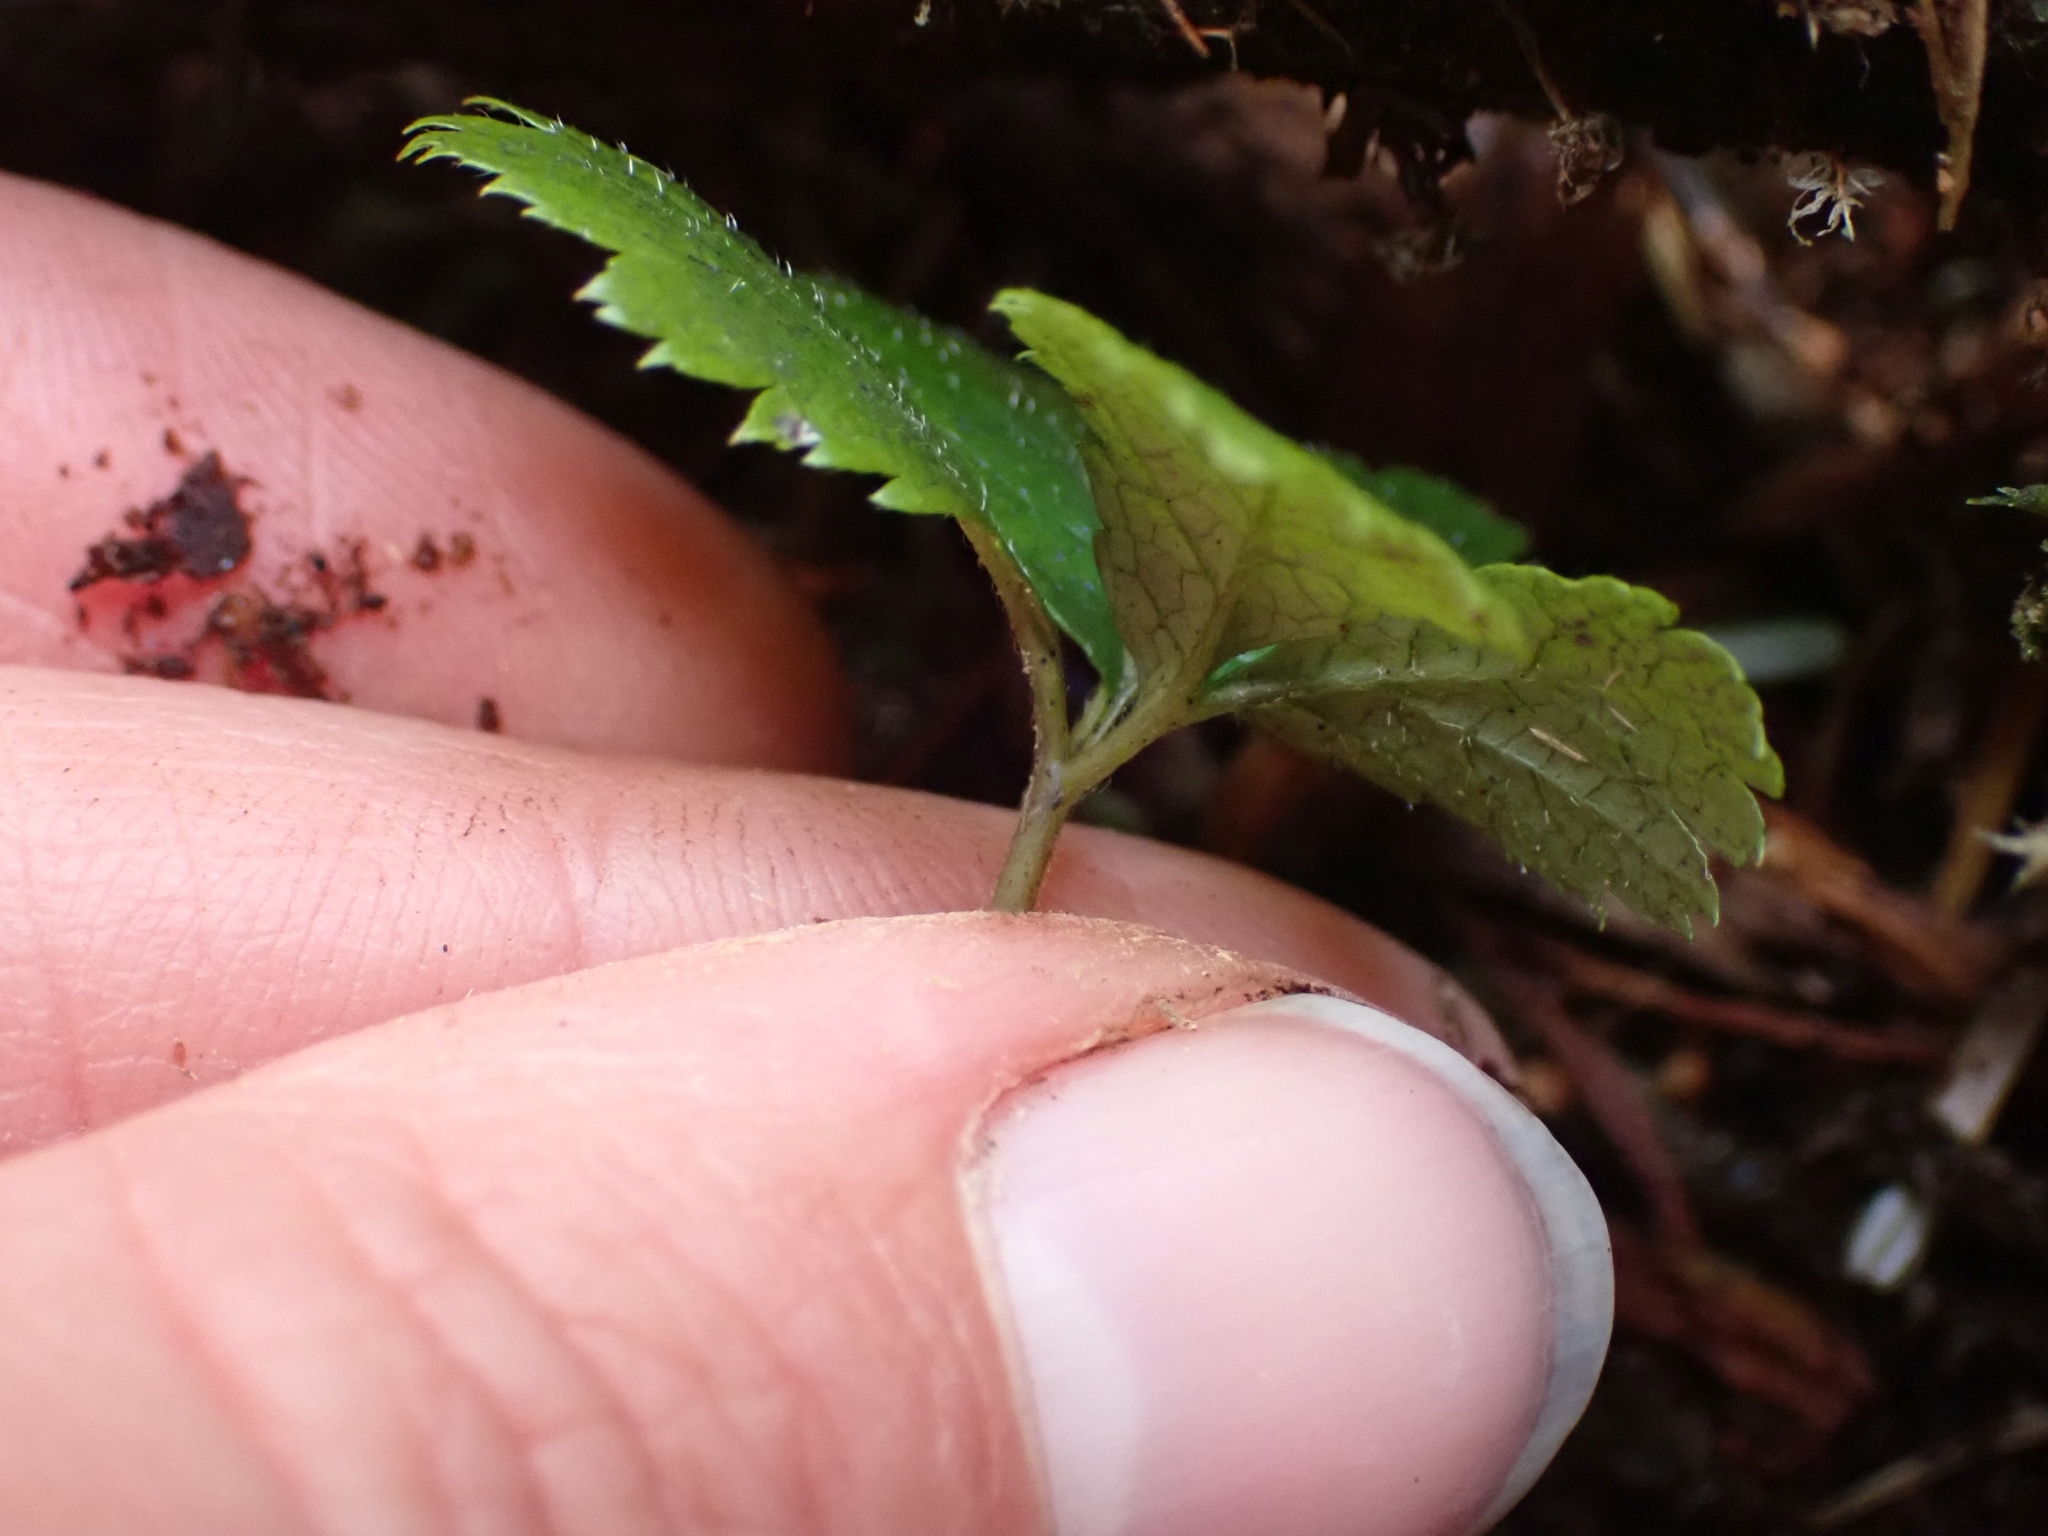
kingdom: Plantae
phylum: Tracheophyta
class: Magnoliopsida
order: Rosales
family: Rosaceae
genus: Rubus
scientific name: Rubus pedatus
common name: Creeping raspberry
